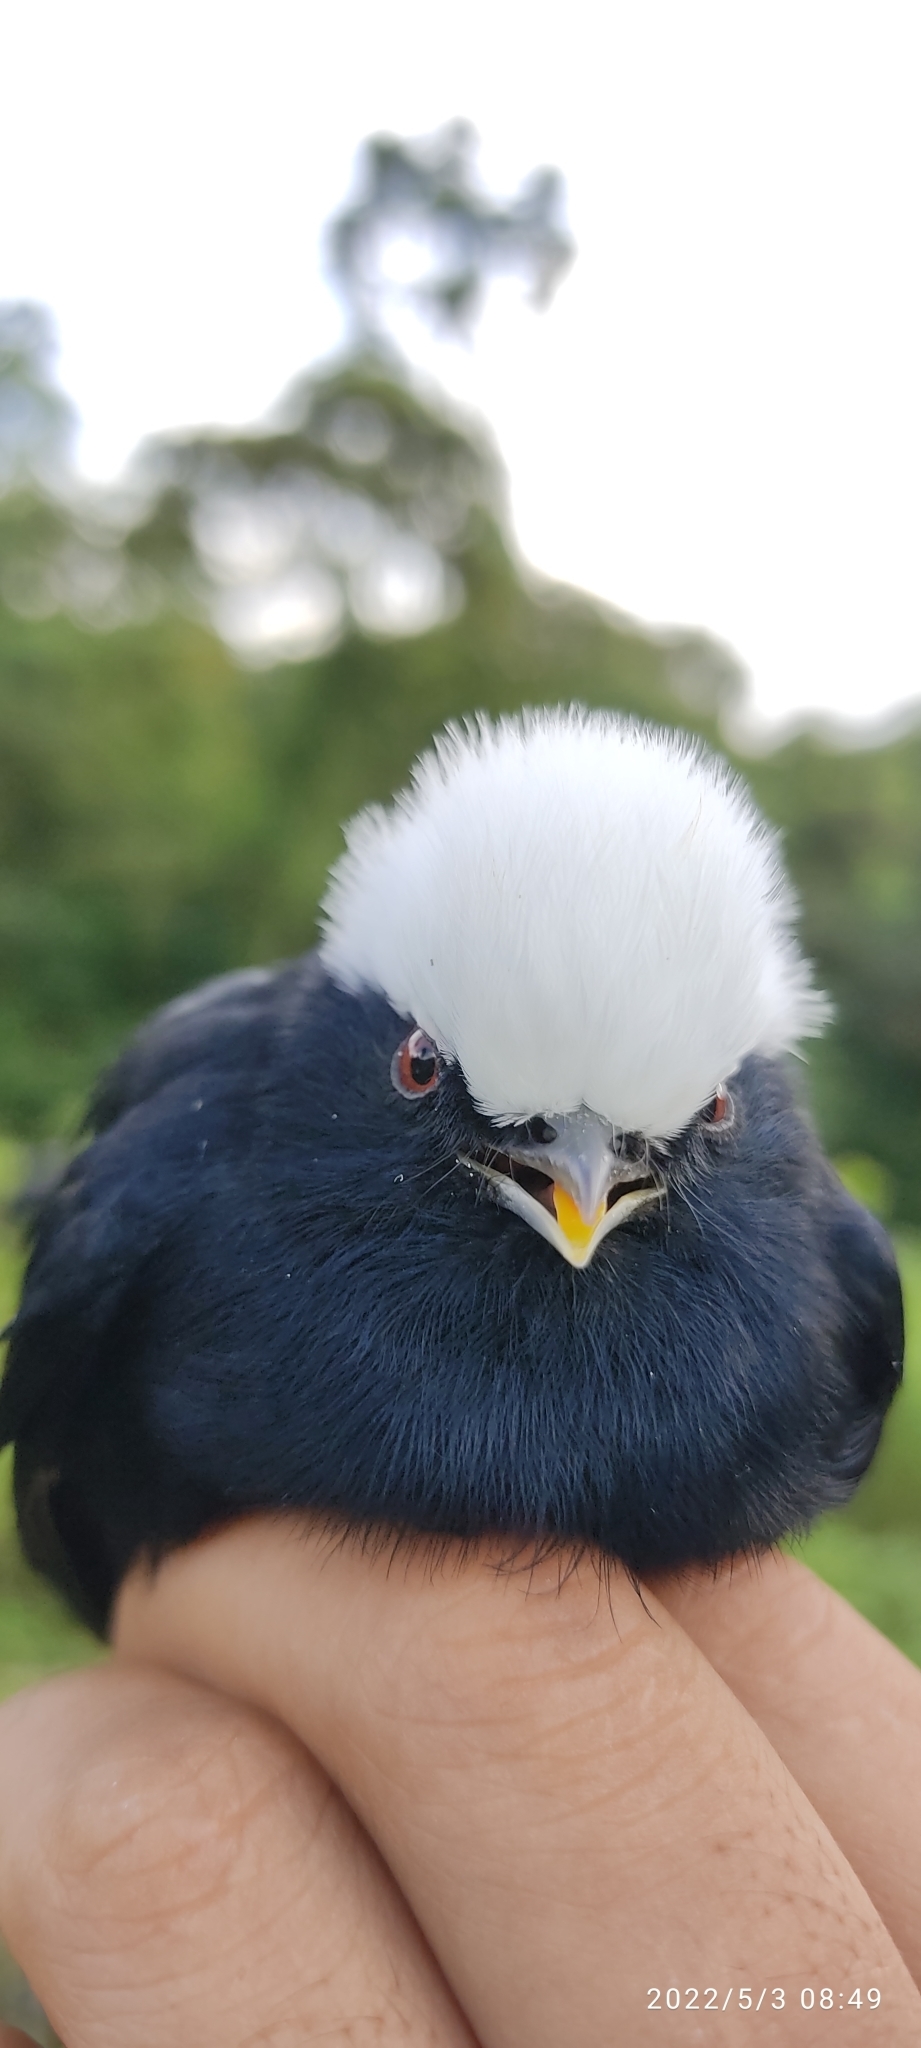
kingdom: Animalia
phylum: Chordata
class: Aves
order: Passeriformes
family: Pipridae
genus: Pipra
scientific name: Pipra pipra
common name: White-crowned manakin
